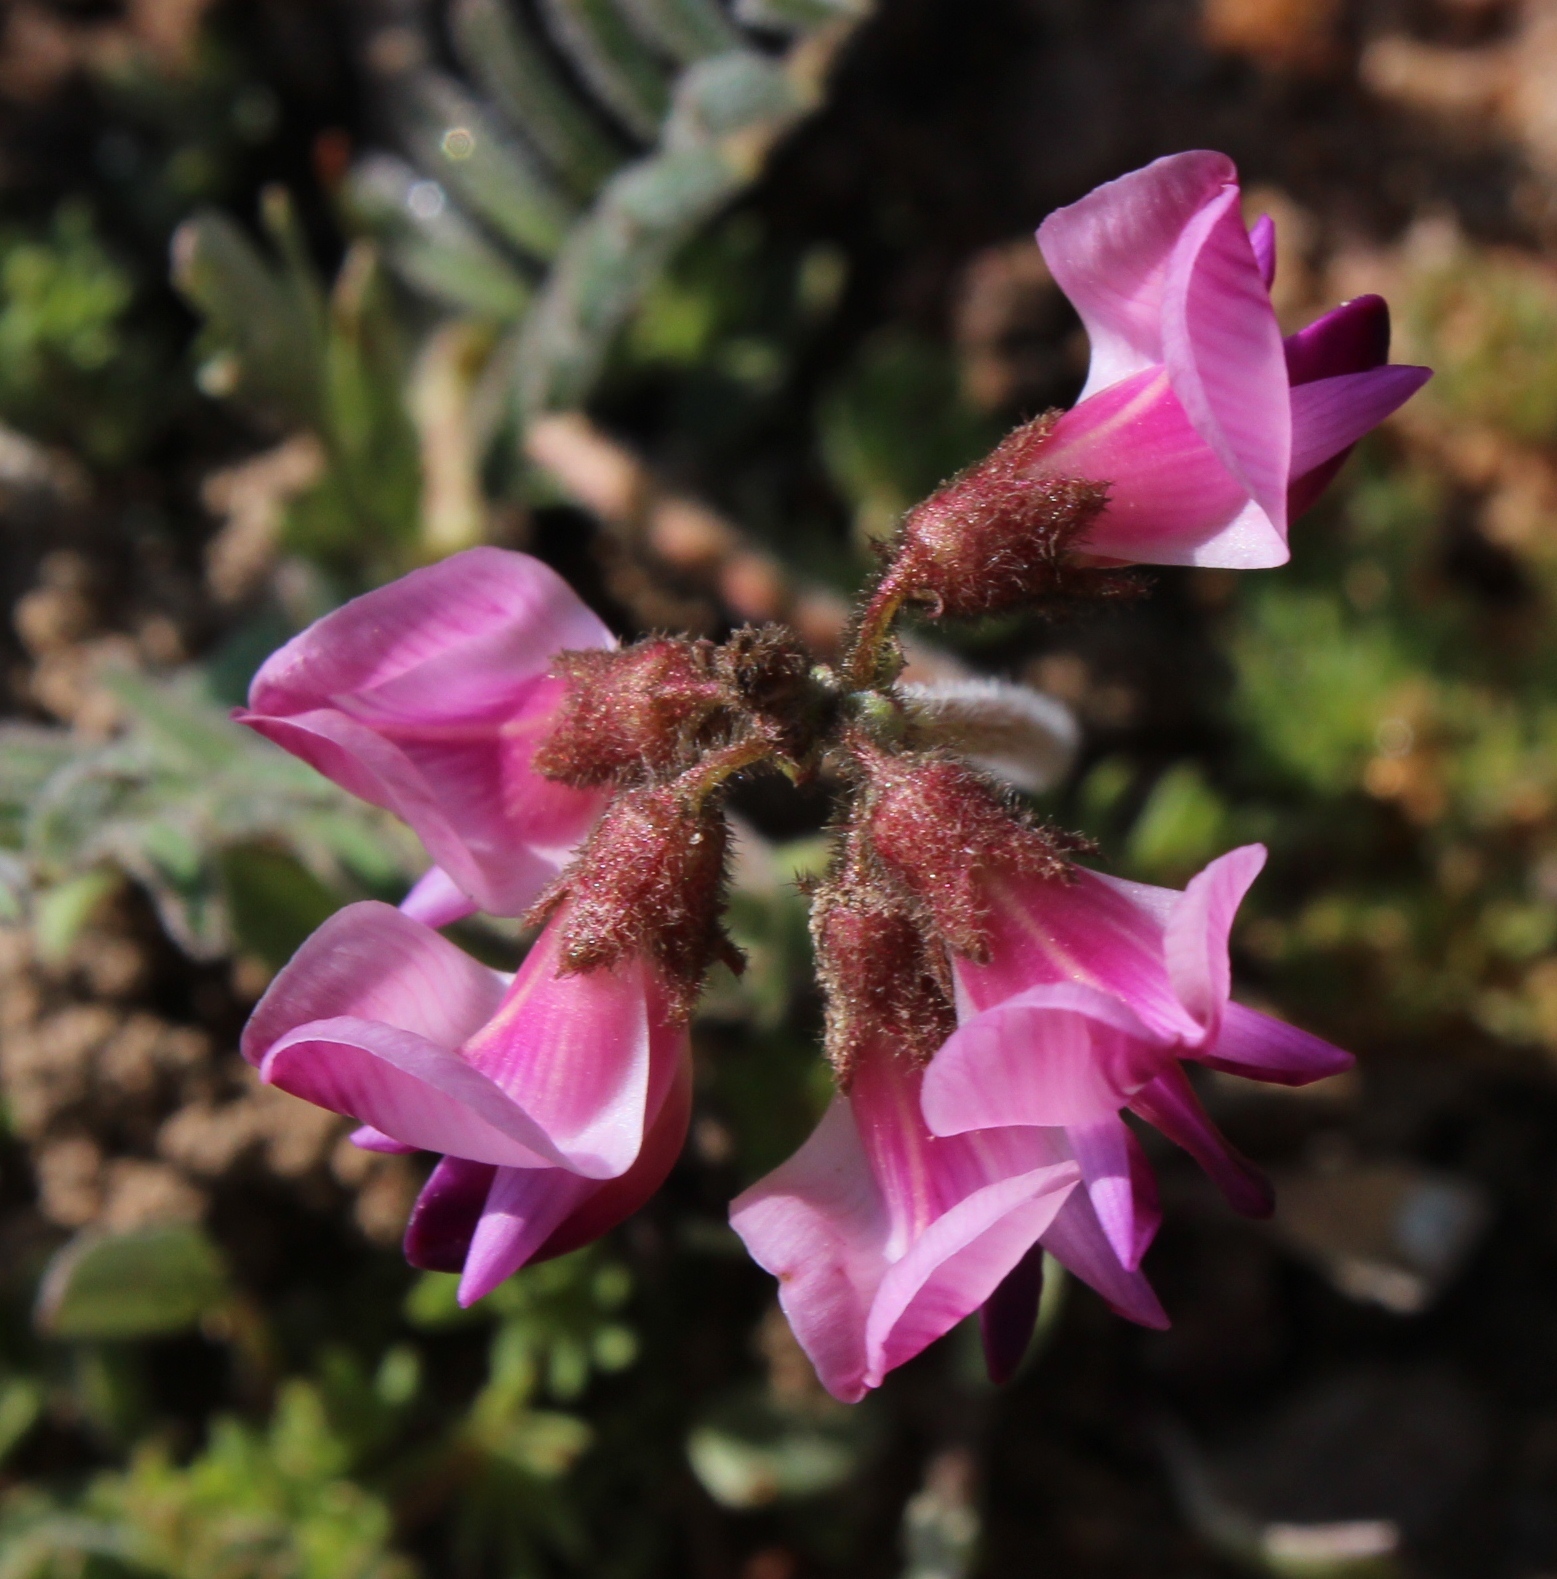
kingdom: Plantae
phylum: Tracheophyta
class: Magnoliopsida
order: Fabales
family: Fabaceae
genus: Lessertia
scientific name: Lessertia diffusa
